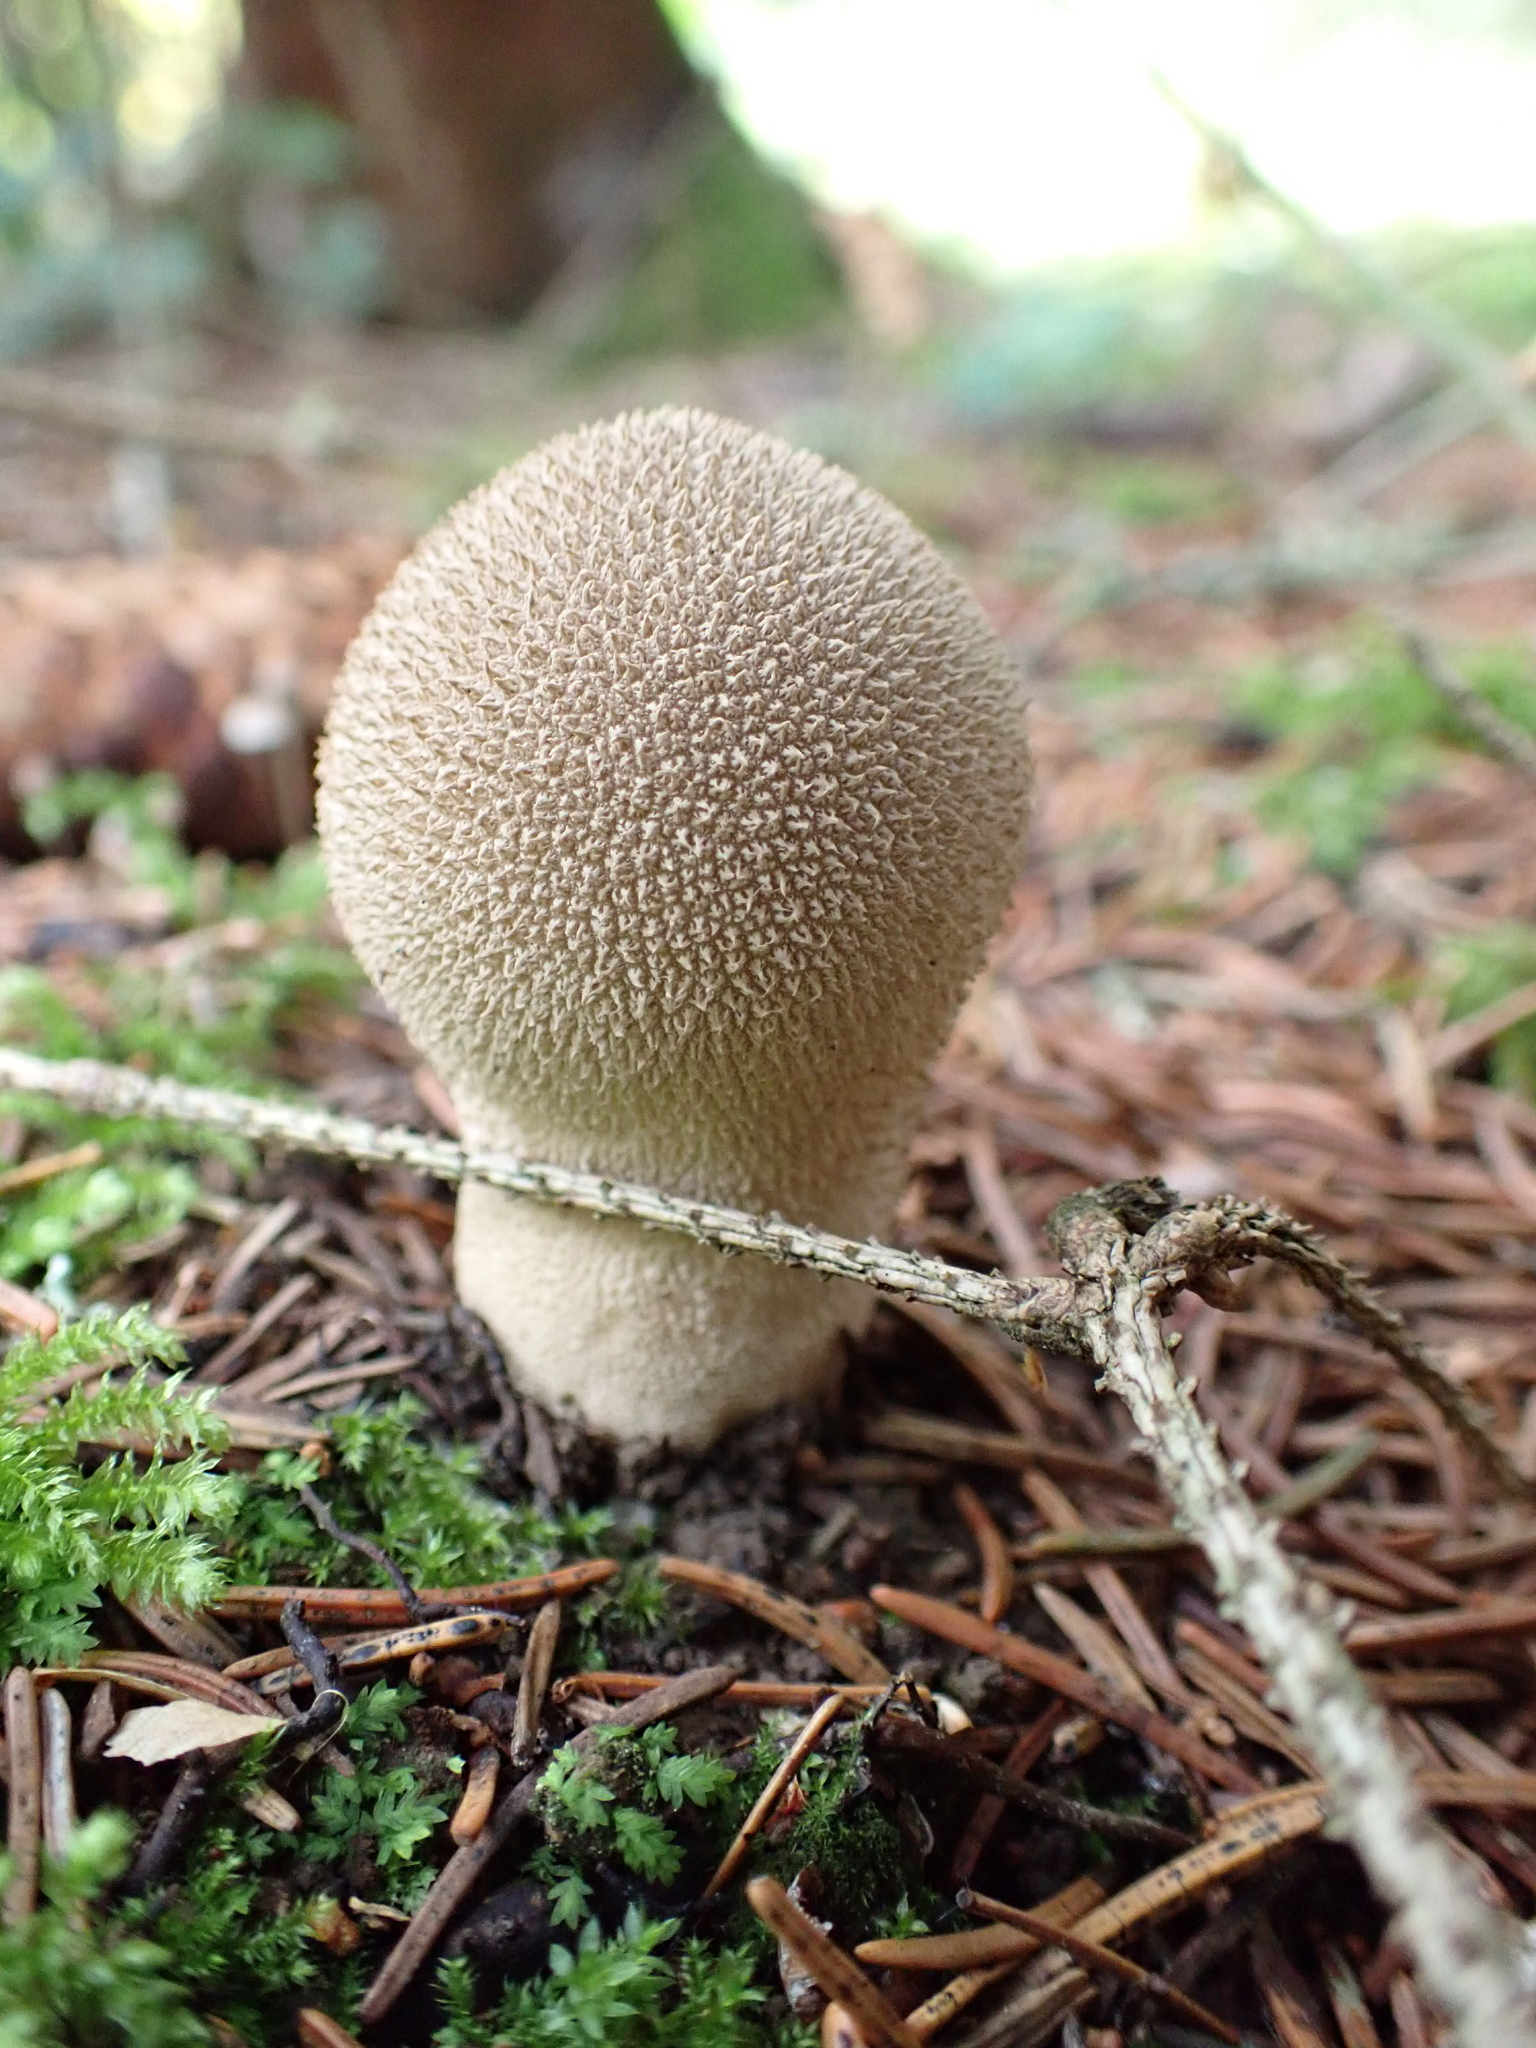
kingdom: Fungi
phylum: Basidiomycota
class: Agaricomycetes
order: Agaricales
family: Lycoperdaceae
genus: Lycoperdon
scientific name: Lycoperdon perlatum
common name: Common puffball
